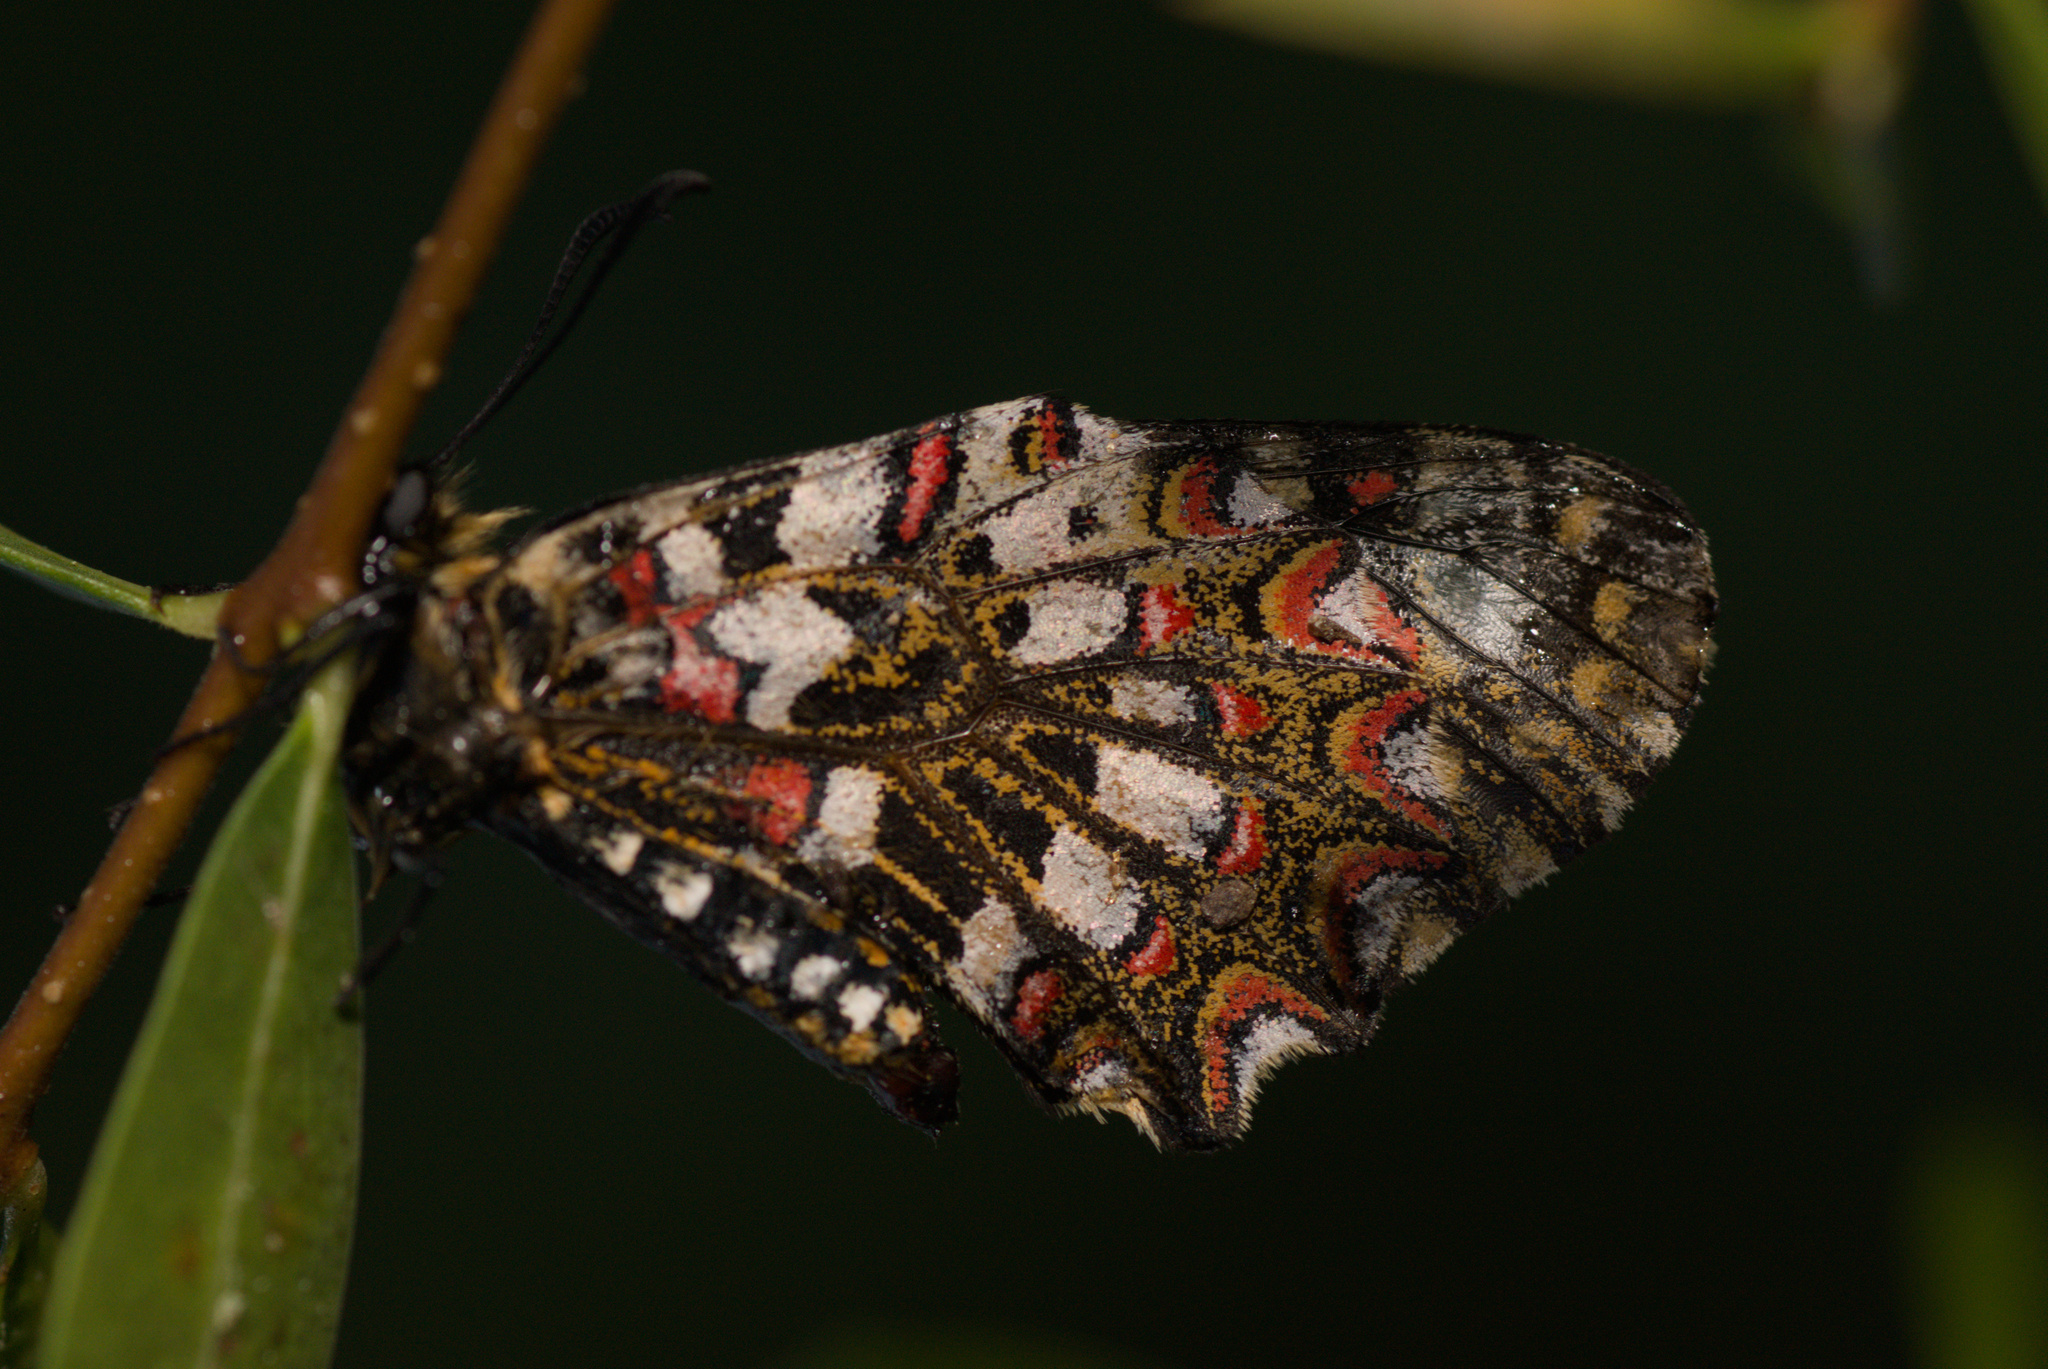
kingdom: Animalia
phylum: Arthropoda
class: Insecta
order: Lepidoptera
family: Papilionidae
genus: Zerynthia
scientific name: Zerynthia rumina
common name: Spanish festoon
